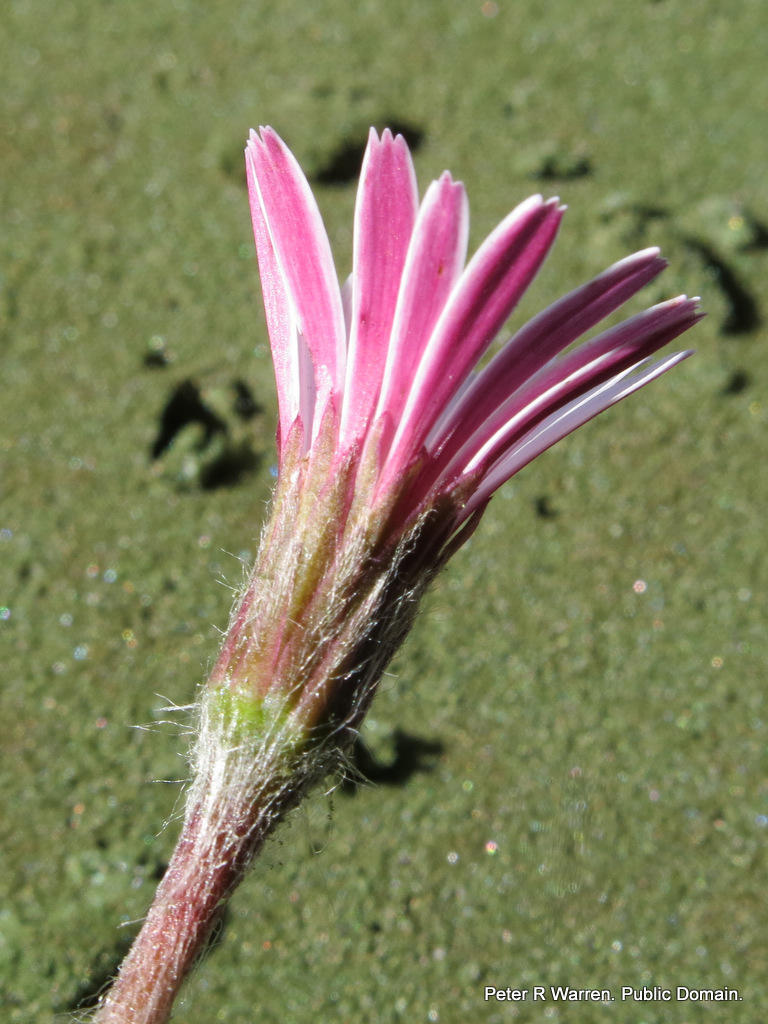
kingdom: Plantae
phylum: Tracheophyta
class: Magnoliopsida
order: Asterales
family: Asteraceae
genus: Gerbera
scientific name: Gerbera natalensis
